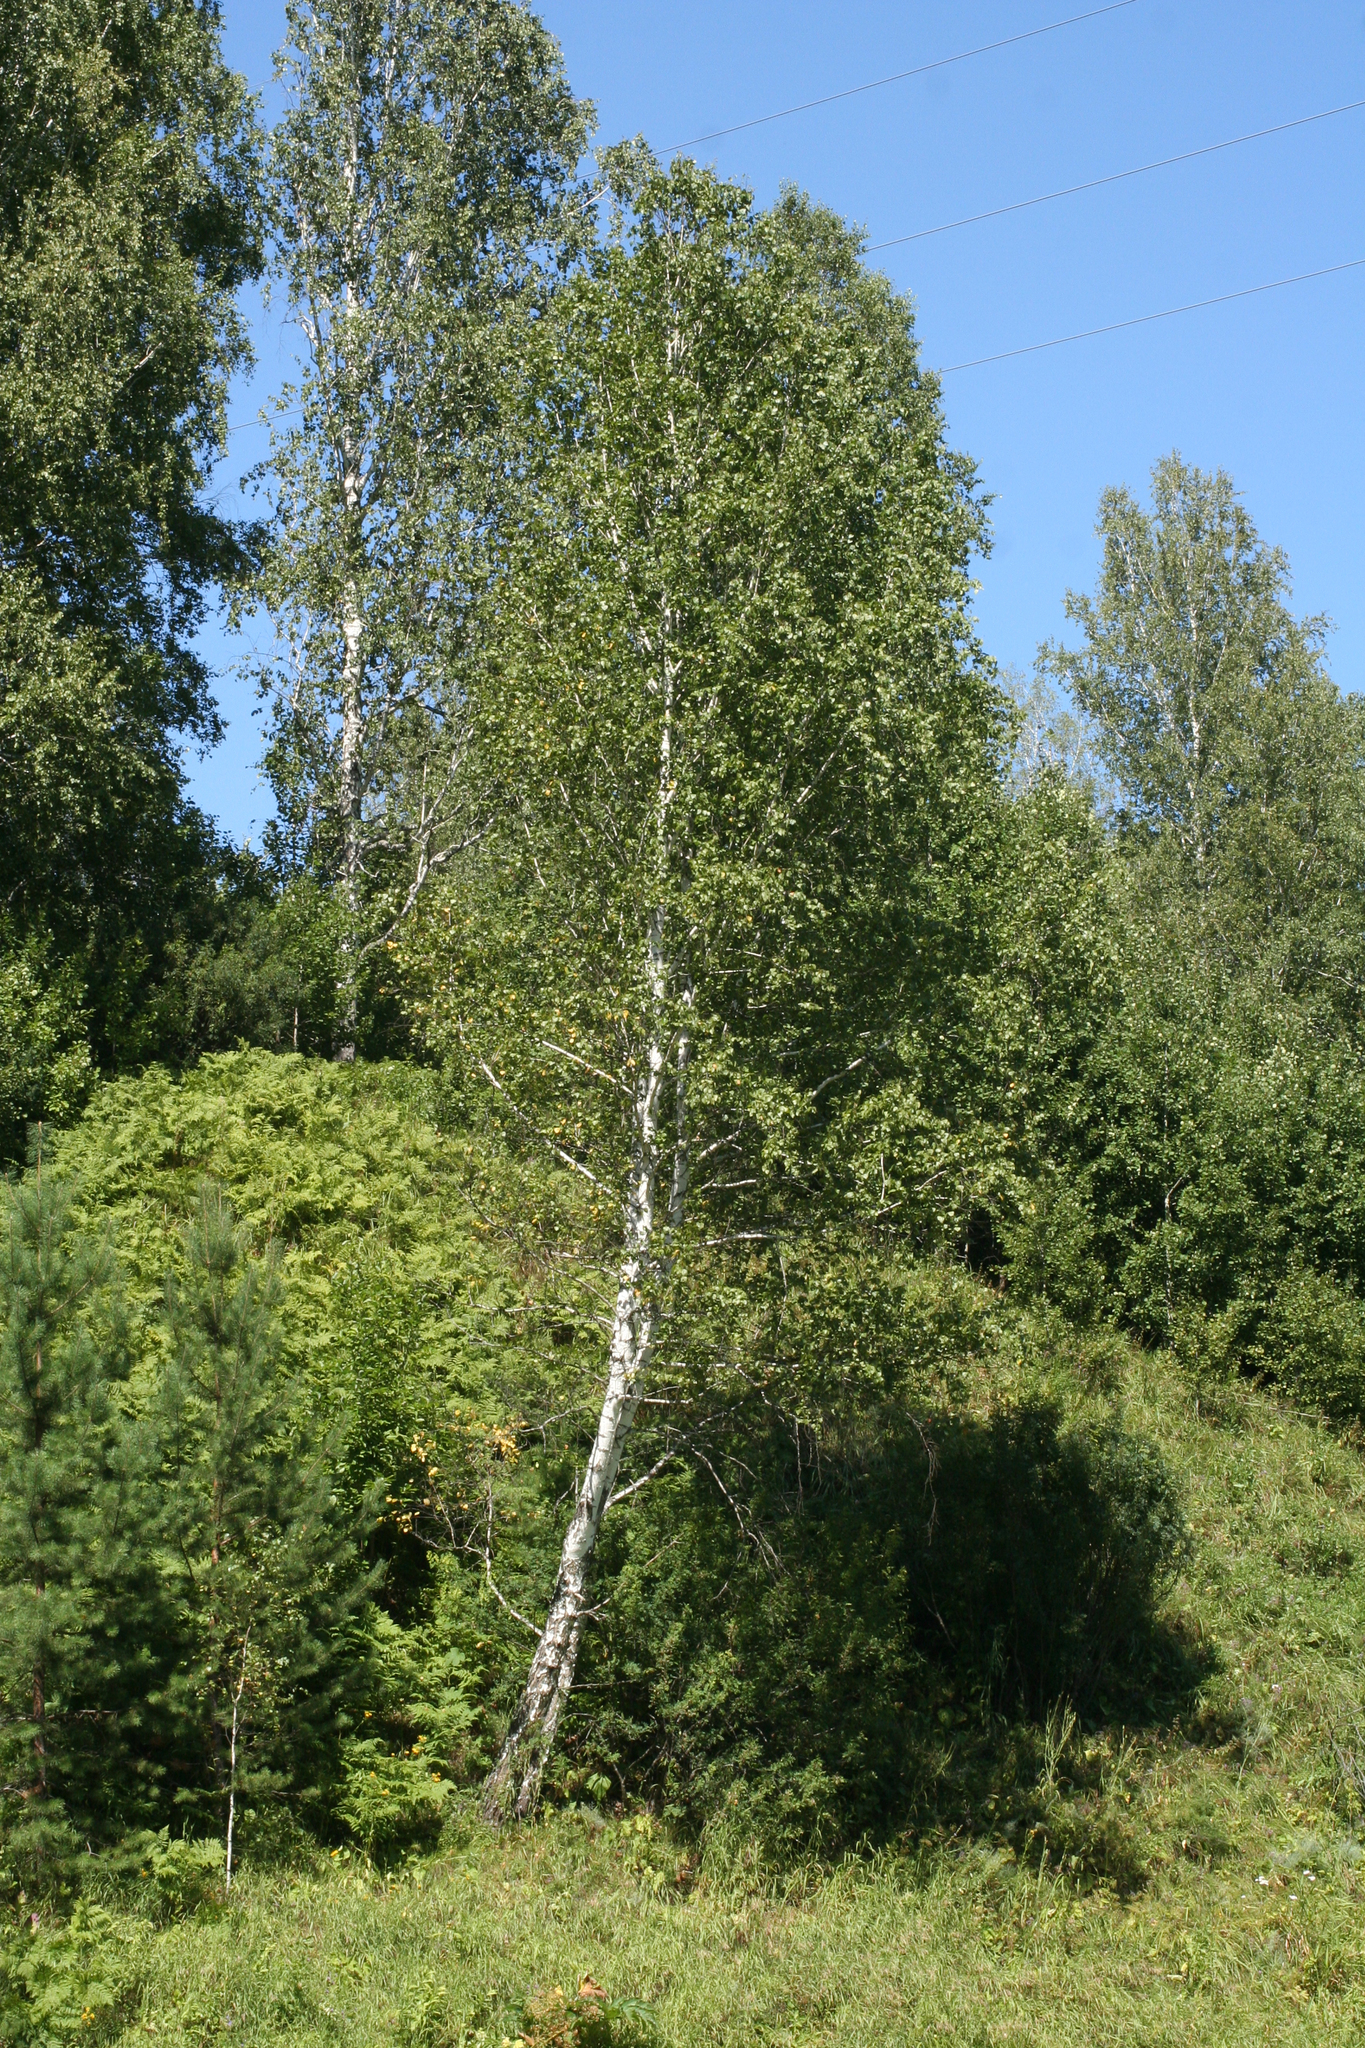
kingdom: Plantae
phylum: Tracheophyta
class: Magnoliopsida
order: Fagales
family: Betulaceae
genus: Betula
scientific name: Betula pendula
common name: Silver birch
